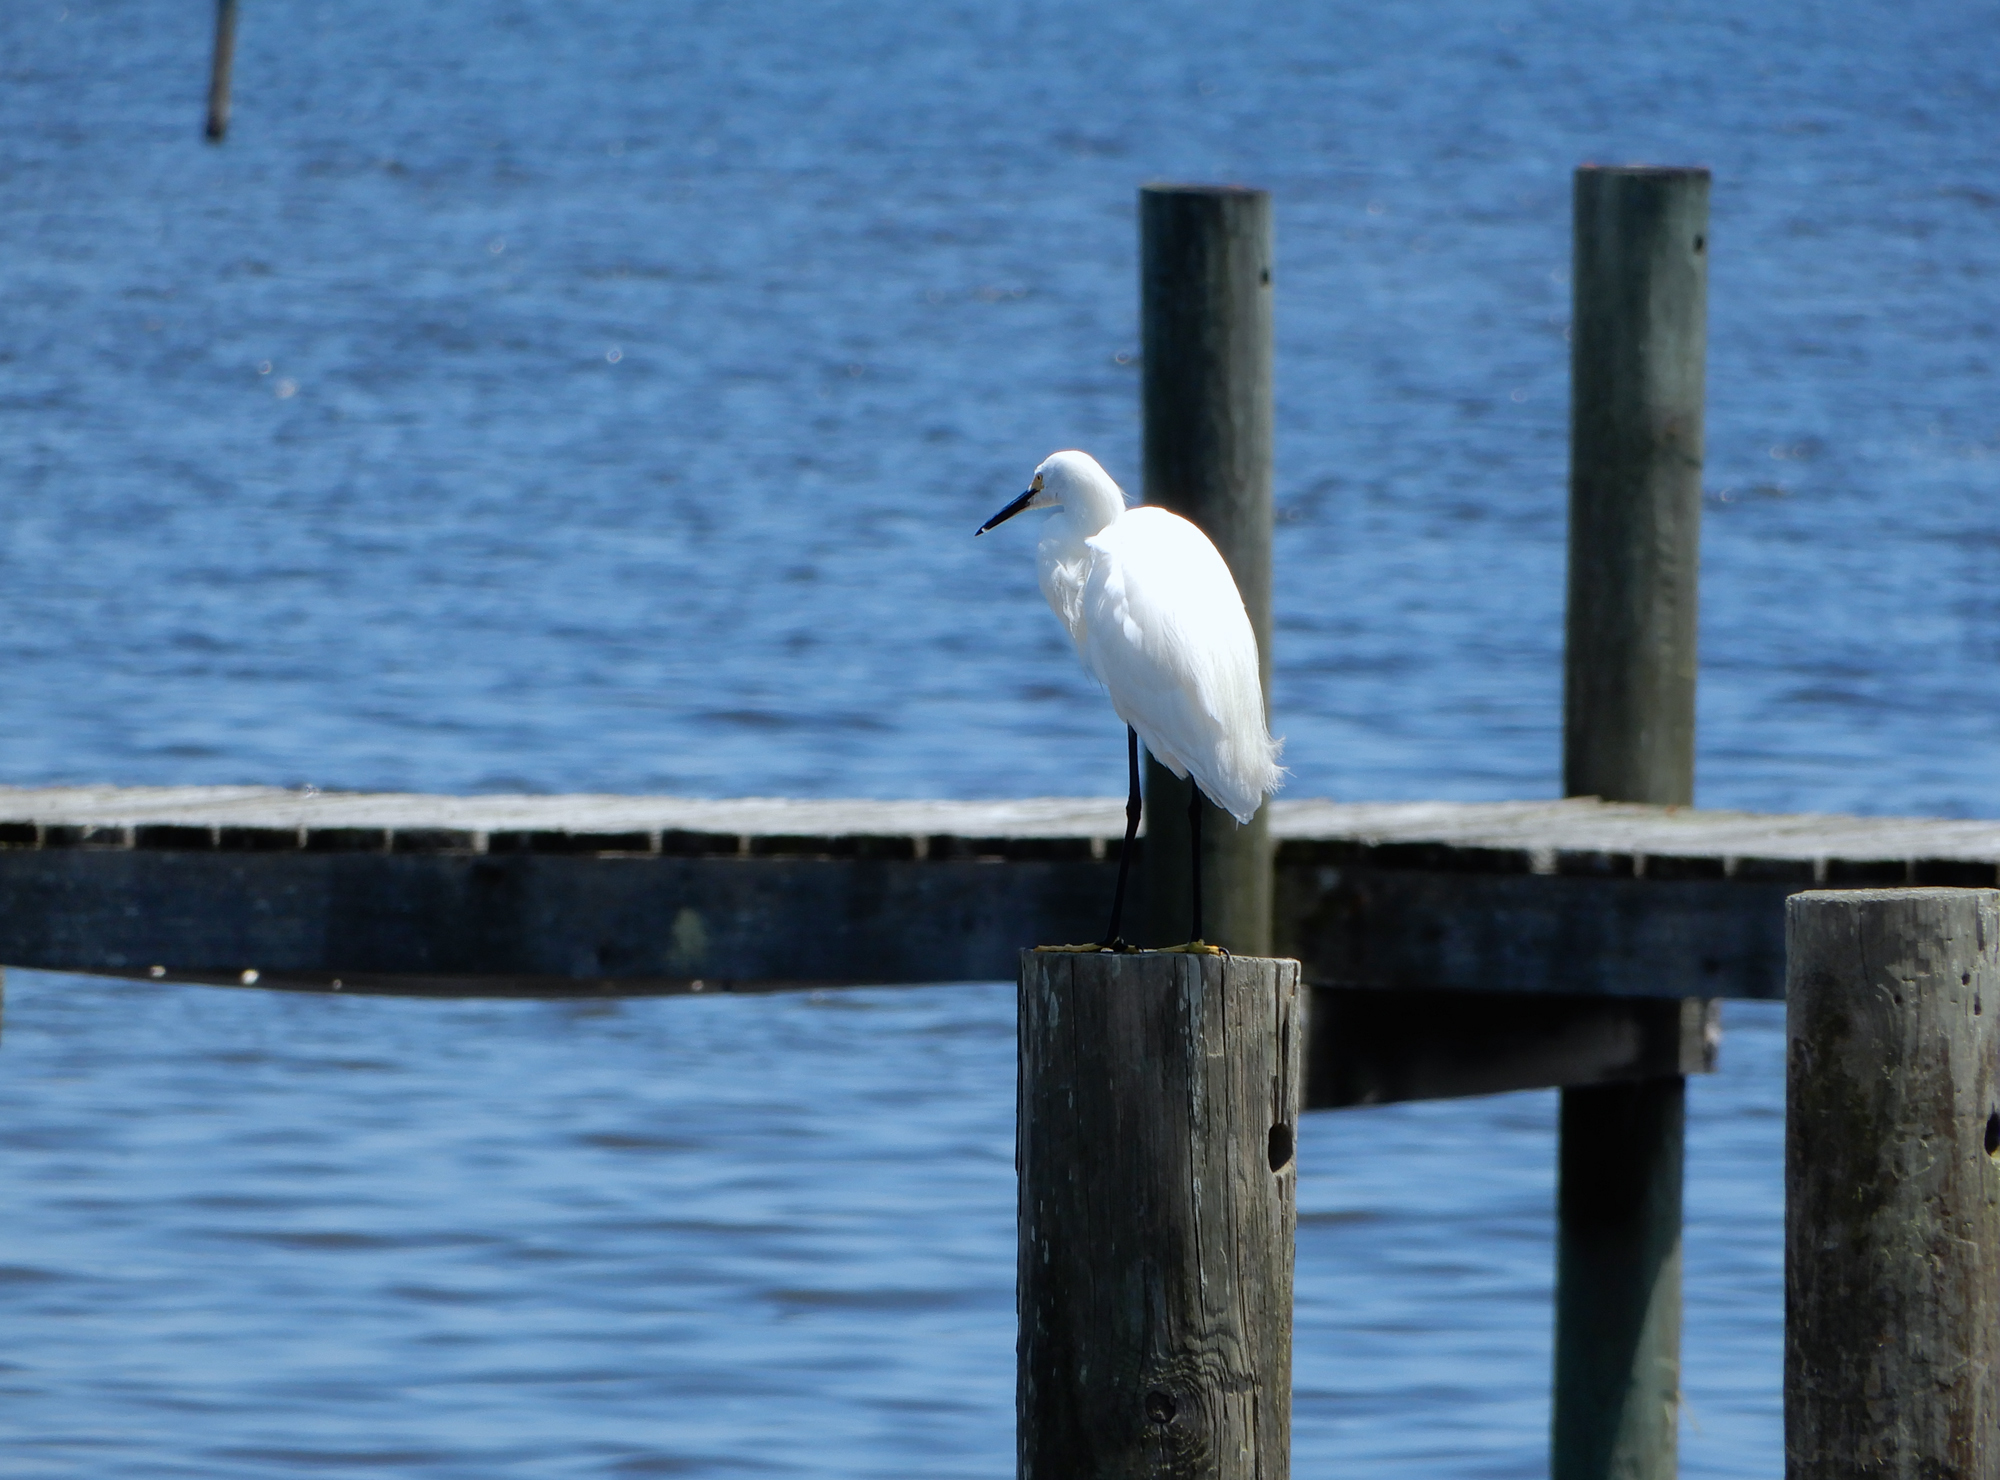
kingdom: Animalia
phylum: Chordata
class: Aves
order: Pelecaniformes
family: Ardeidae
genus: Egretta
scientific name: Egretta thula
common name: Snowy egret
